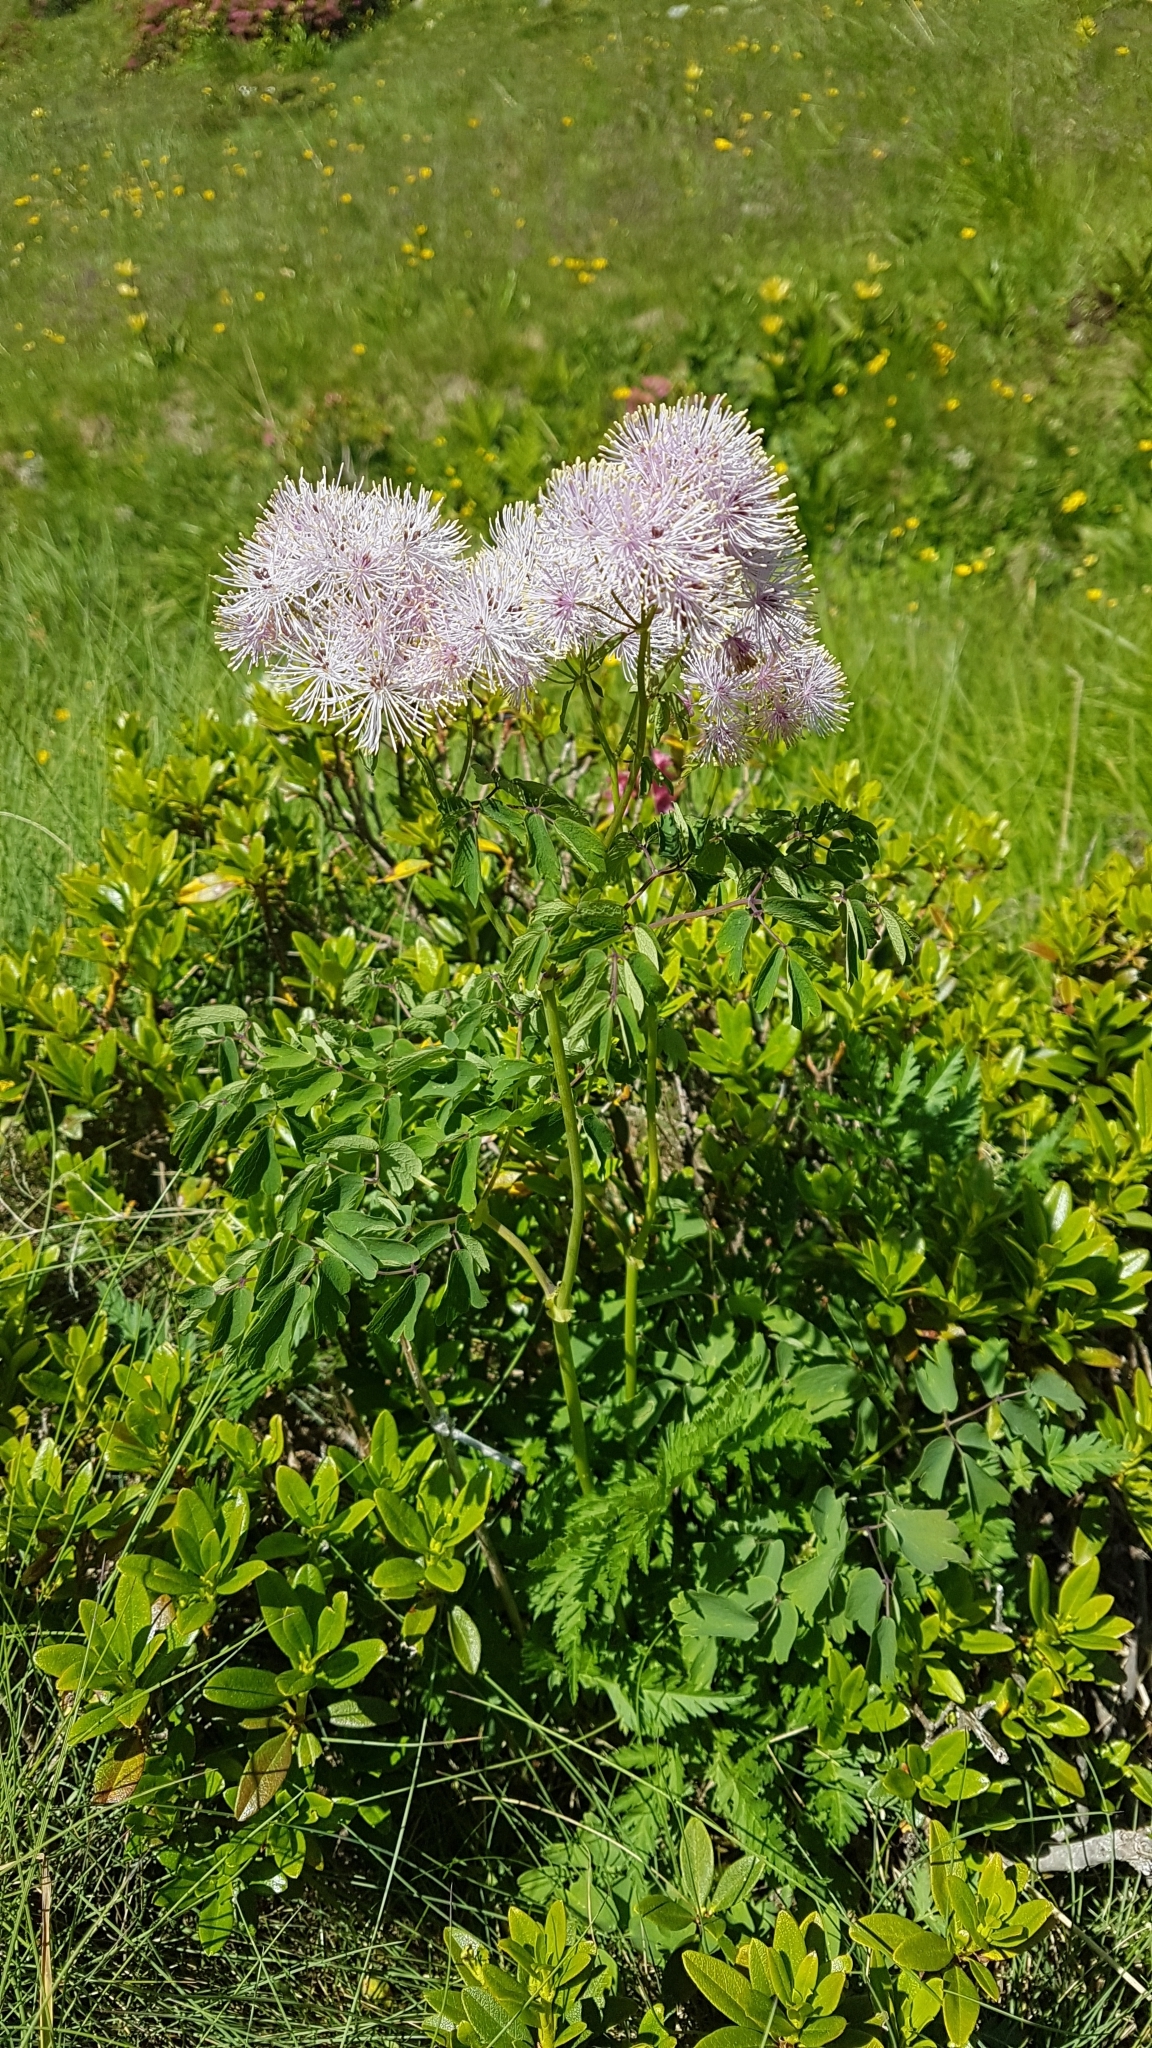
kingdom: Plantae
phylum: Tracheophyta
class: Magnoliopsida
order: Ranunculales
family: Ranunculaceae
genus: Thalictrum
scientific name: Thalictrum aquilegiifolium
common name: French meadow-rue
